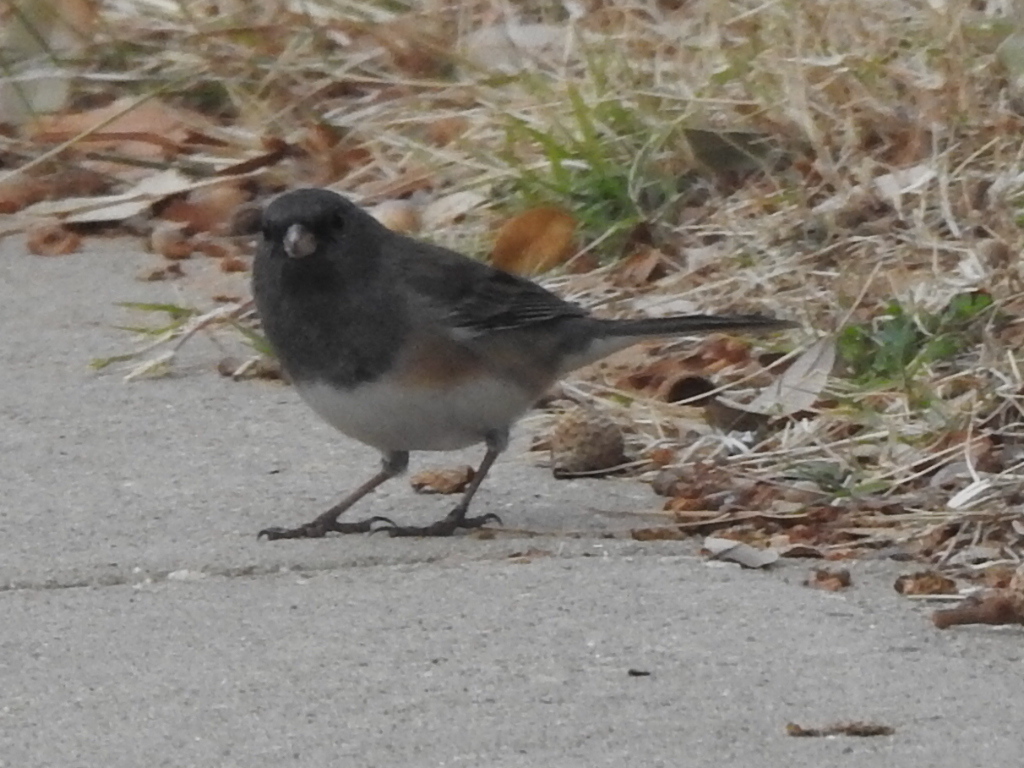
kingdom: Animalia
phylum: Chordata
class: Aves
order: Passeriformes
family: Passerellidae
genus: Junco
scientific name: Junco hyemalis
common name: Dark-eyed junco
